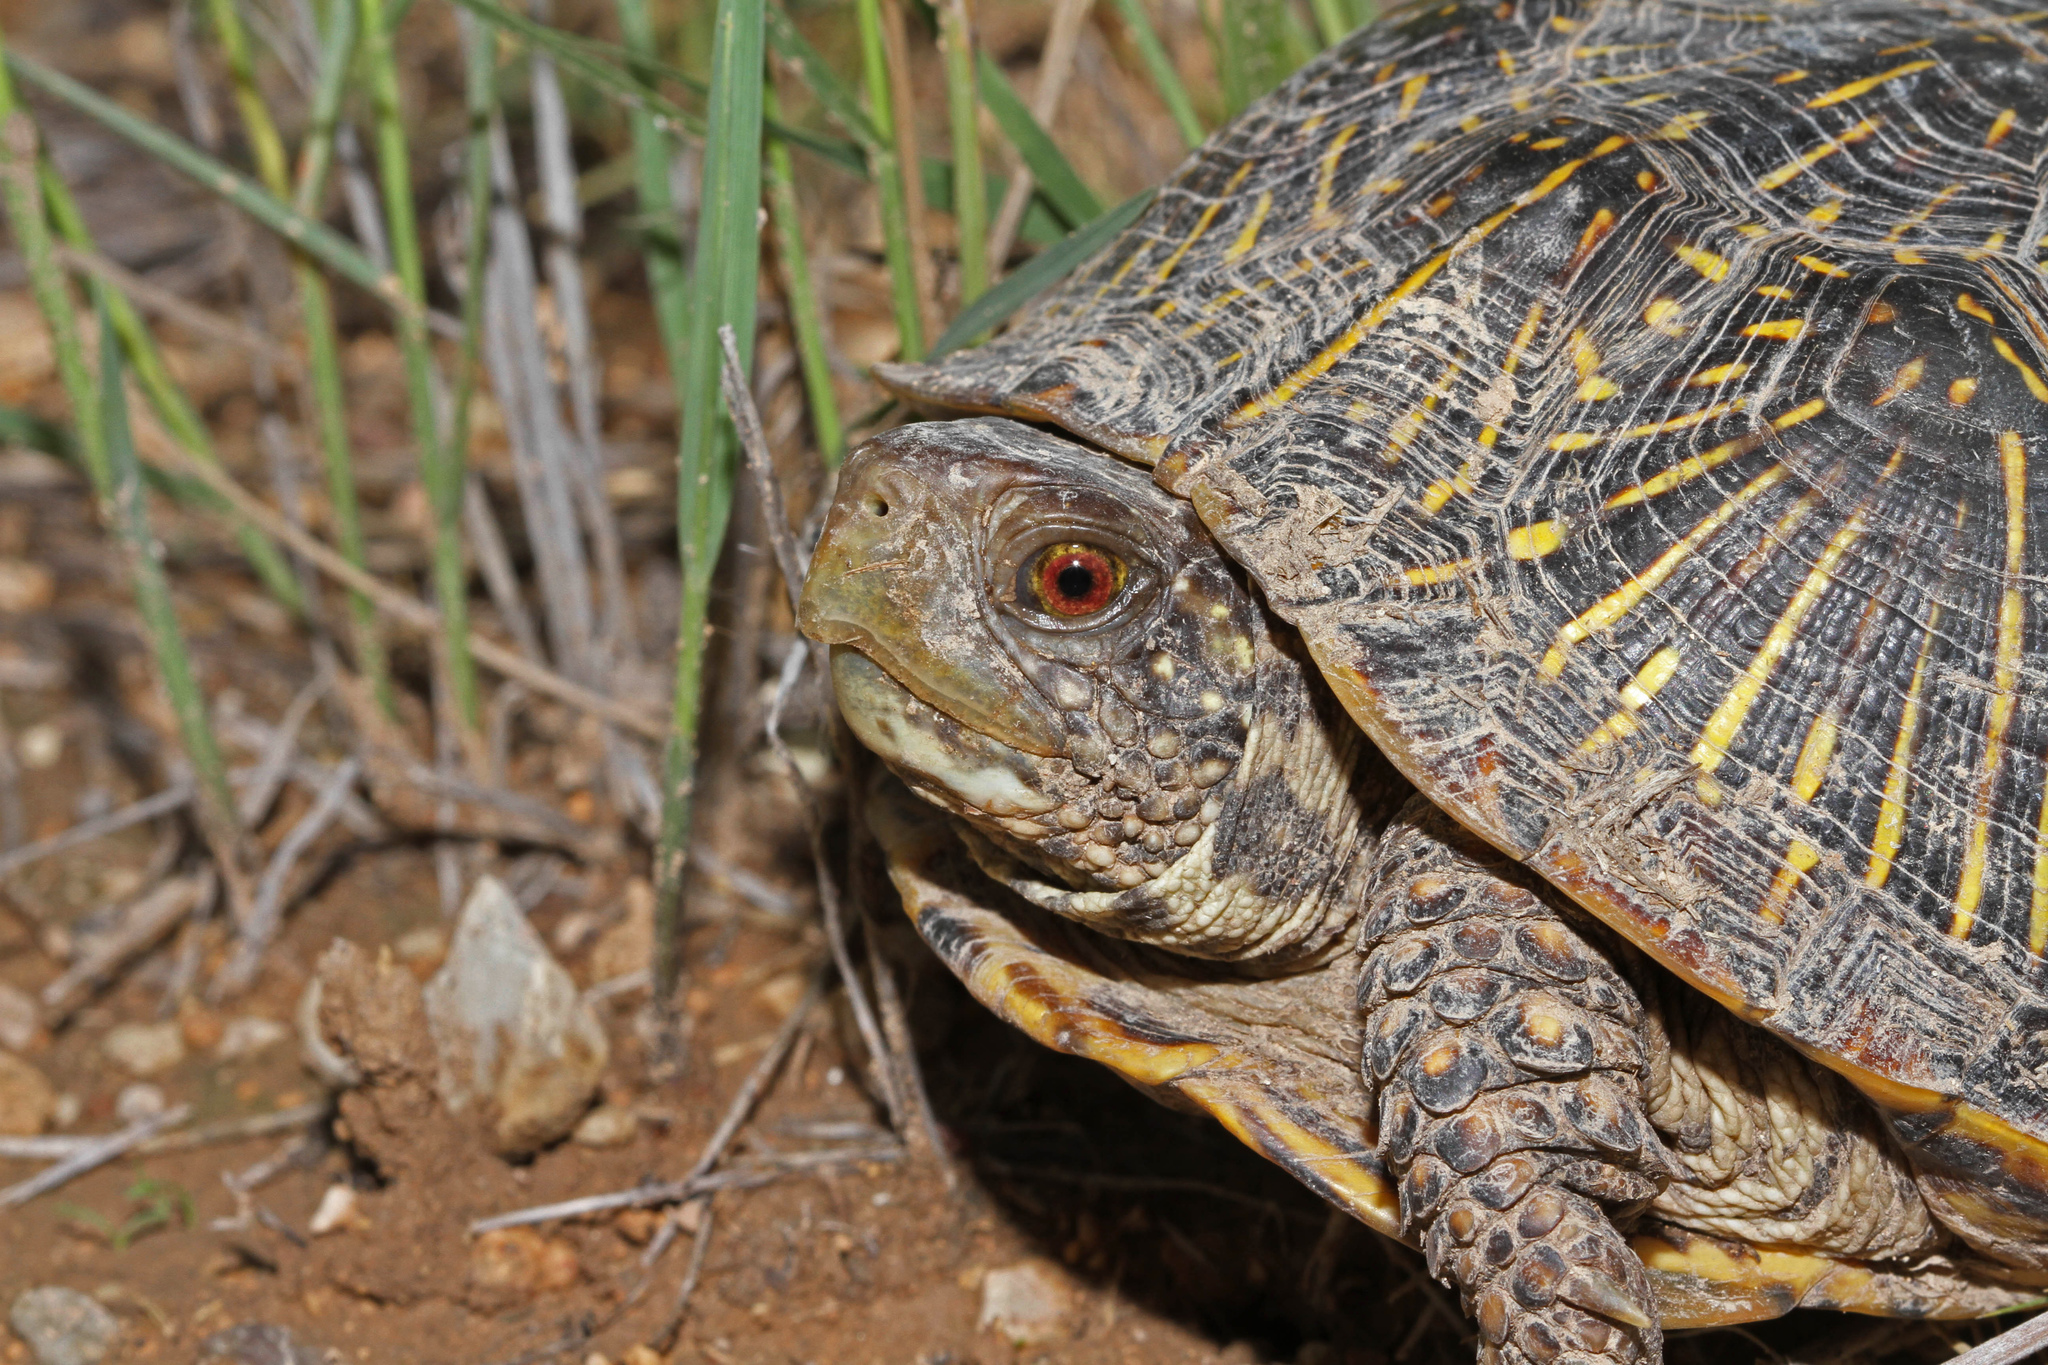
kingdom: Animalia
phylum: Chordata
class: Testudines
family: Emydidae
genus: Terrapene
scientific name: Terrapene ornata
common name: Western box turtle
